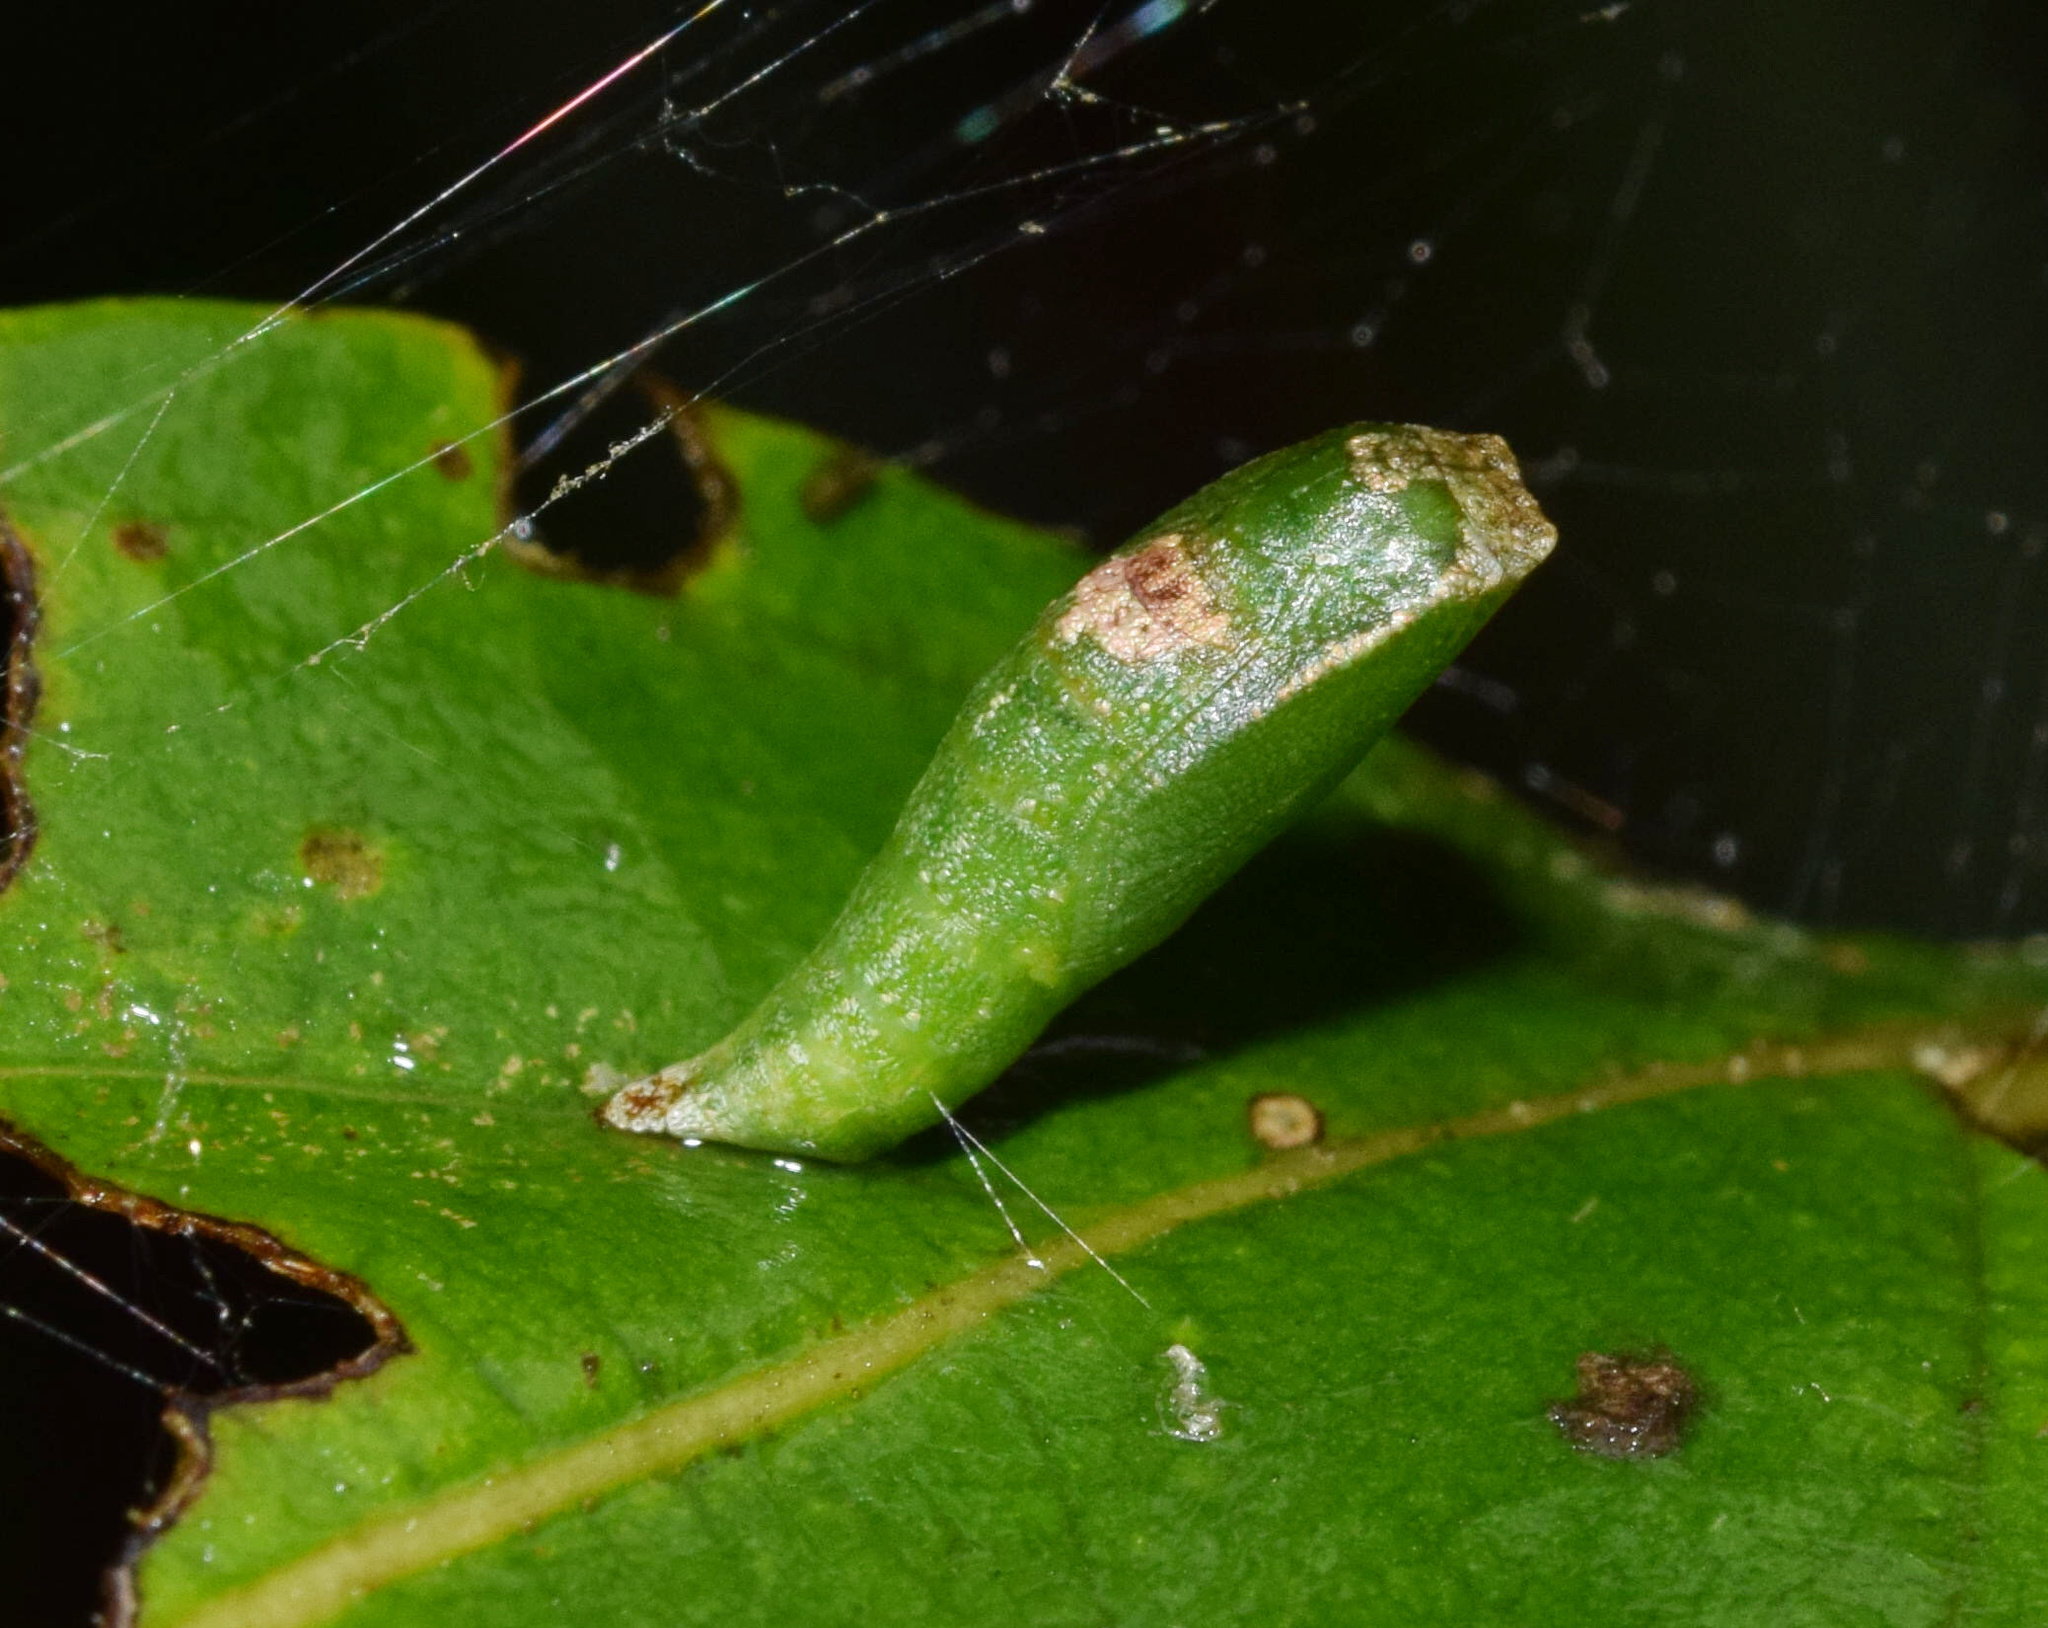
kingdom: Animalia
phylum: Arthropoda
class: Insecta
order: Lepidoptera
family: Geometridae
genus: Chrysocraspeda
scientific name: Chrysocraspeda leighata
